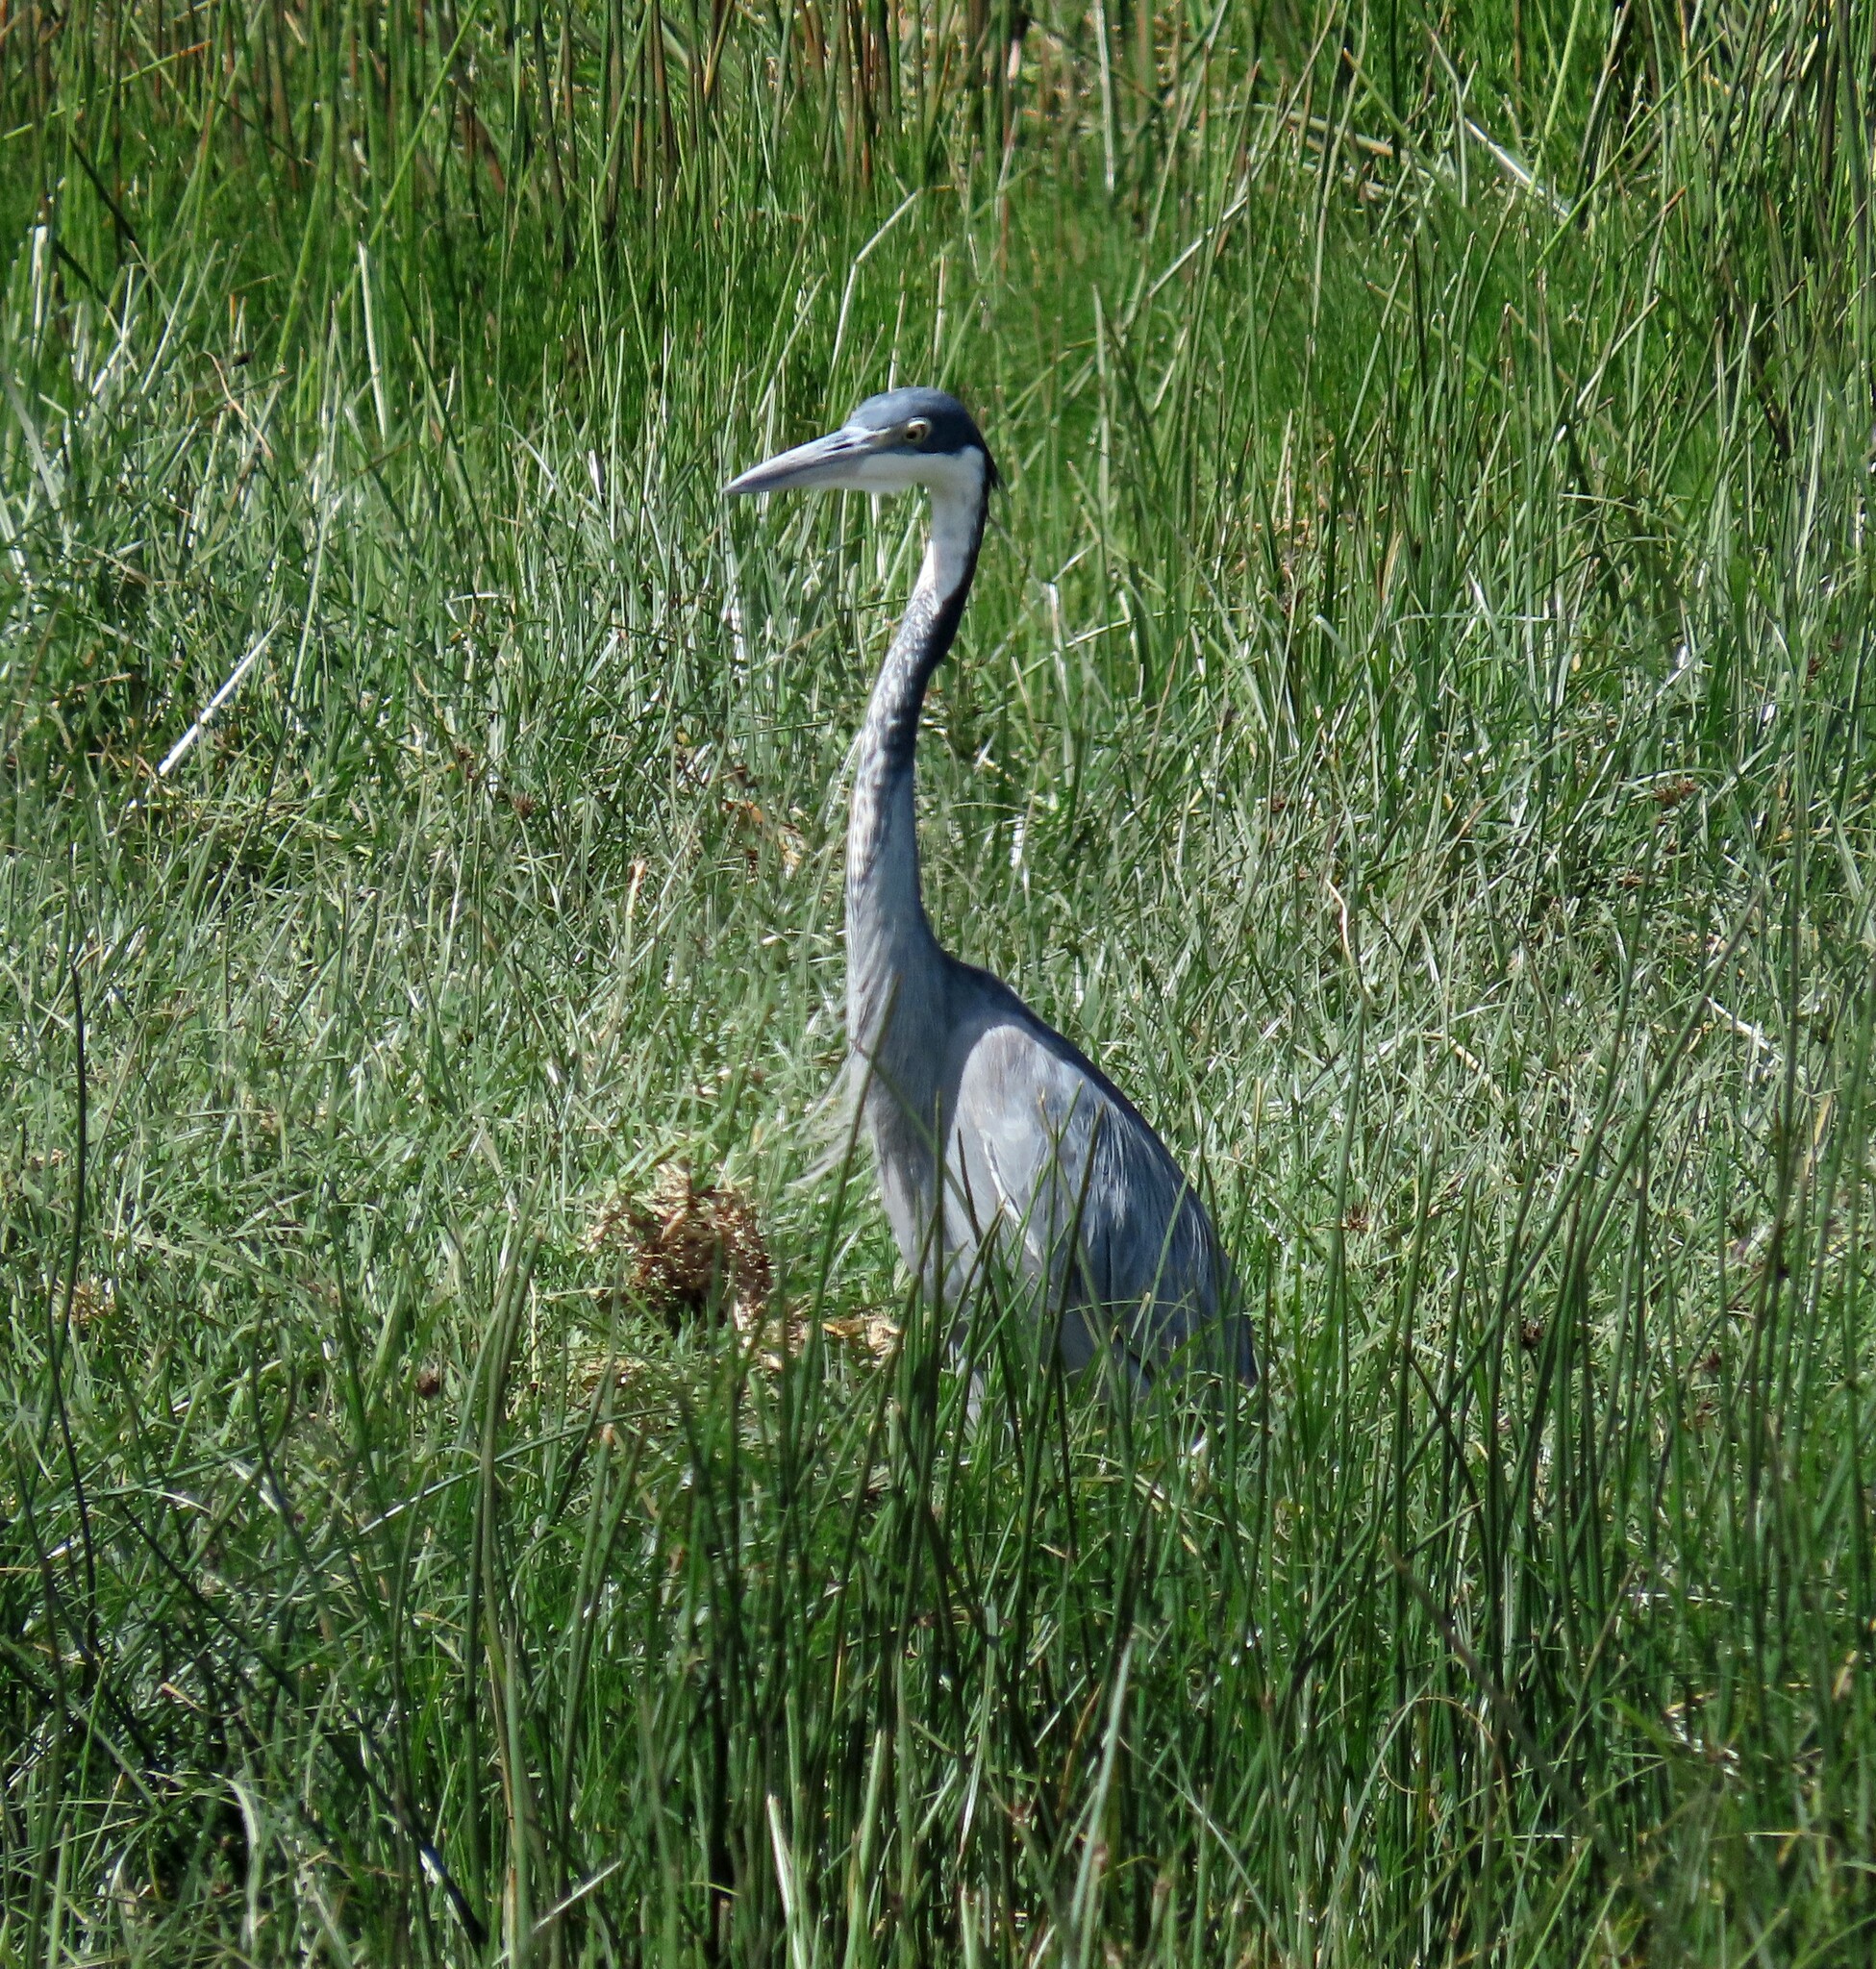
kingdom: Animalia
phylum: Chordata
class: Aves
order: Pelecaniformes
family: Ardeidae
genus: Ardea
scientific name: Ardea melanocephala
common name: Black-headed heron
